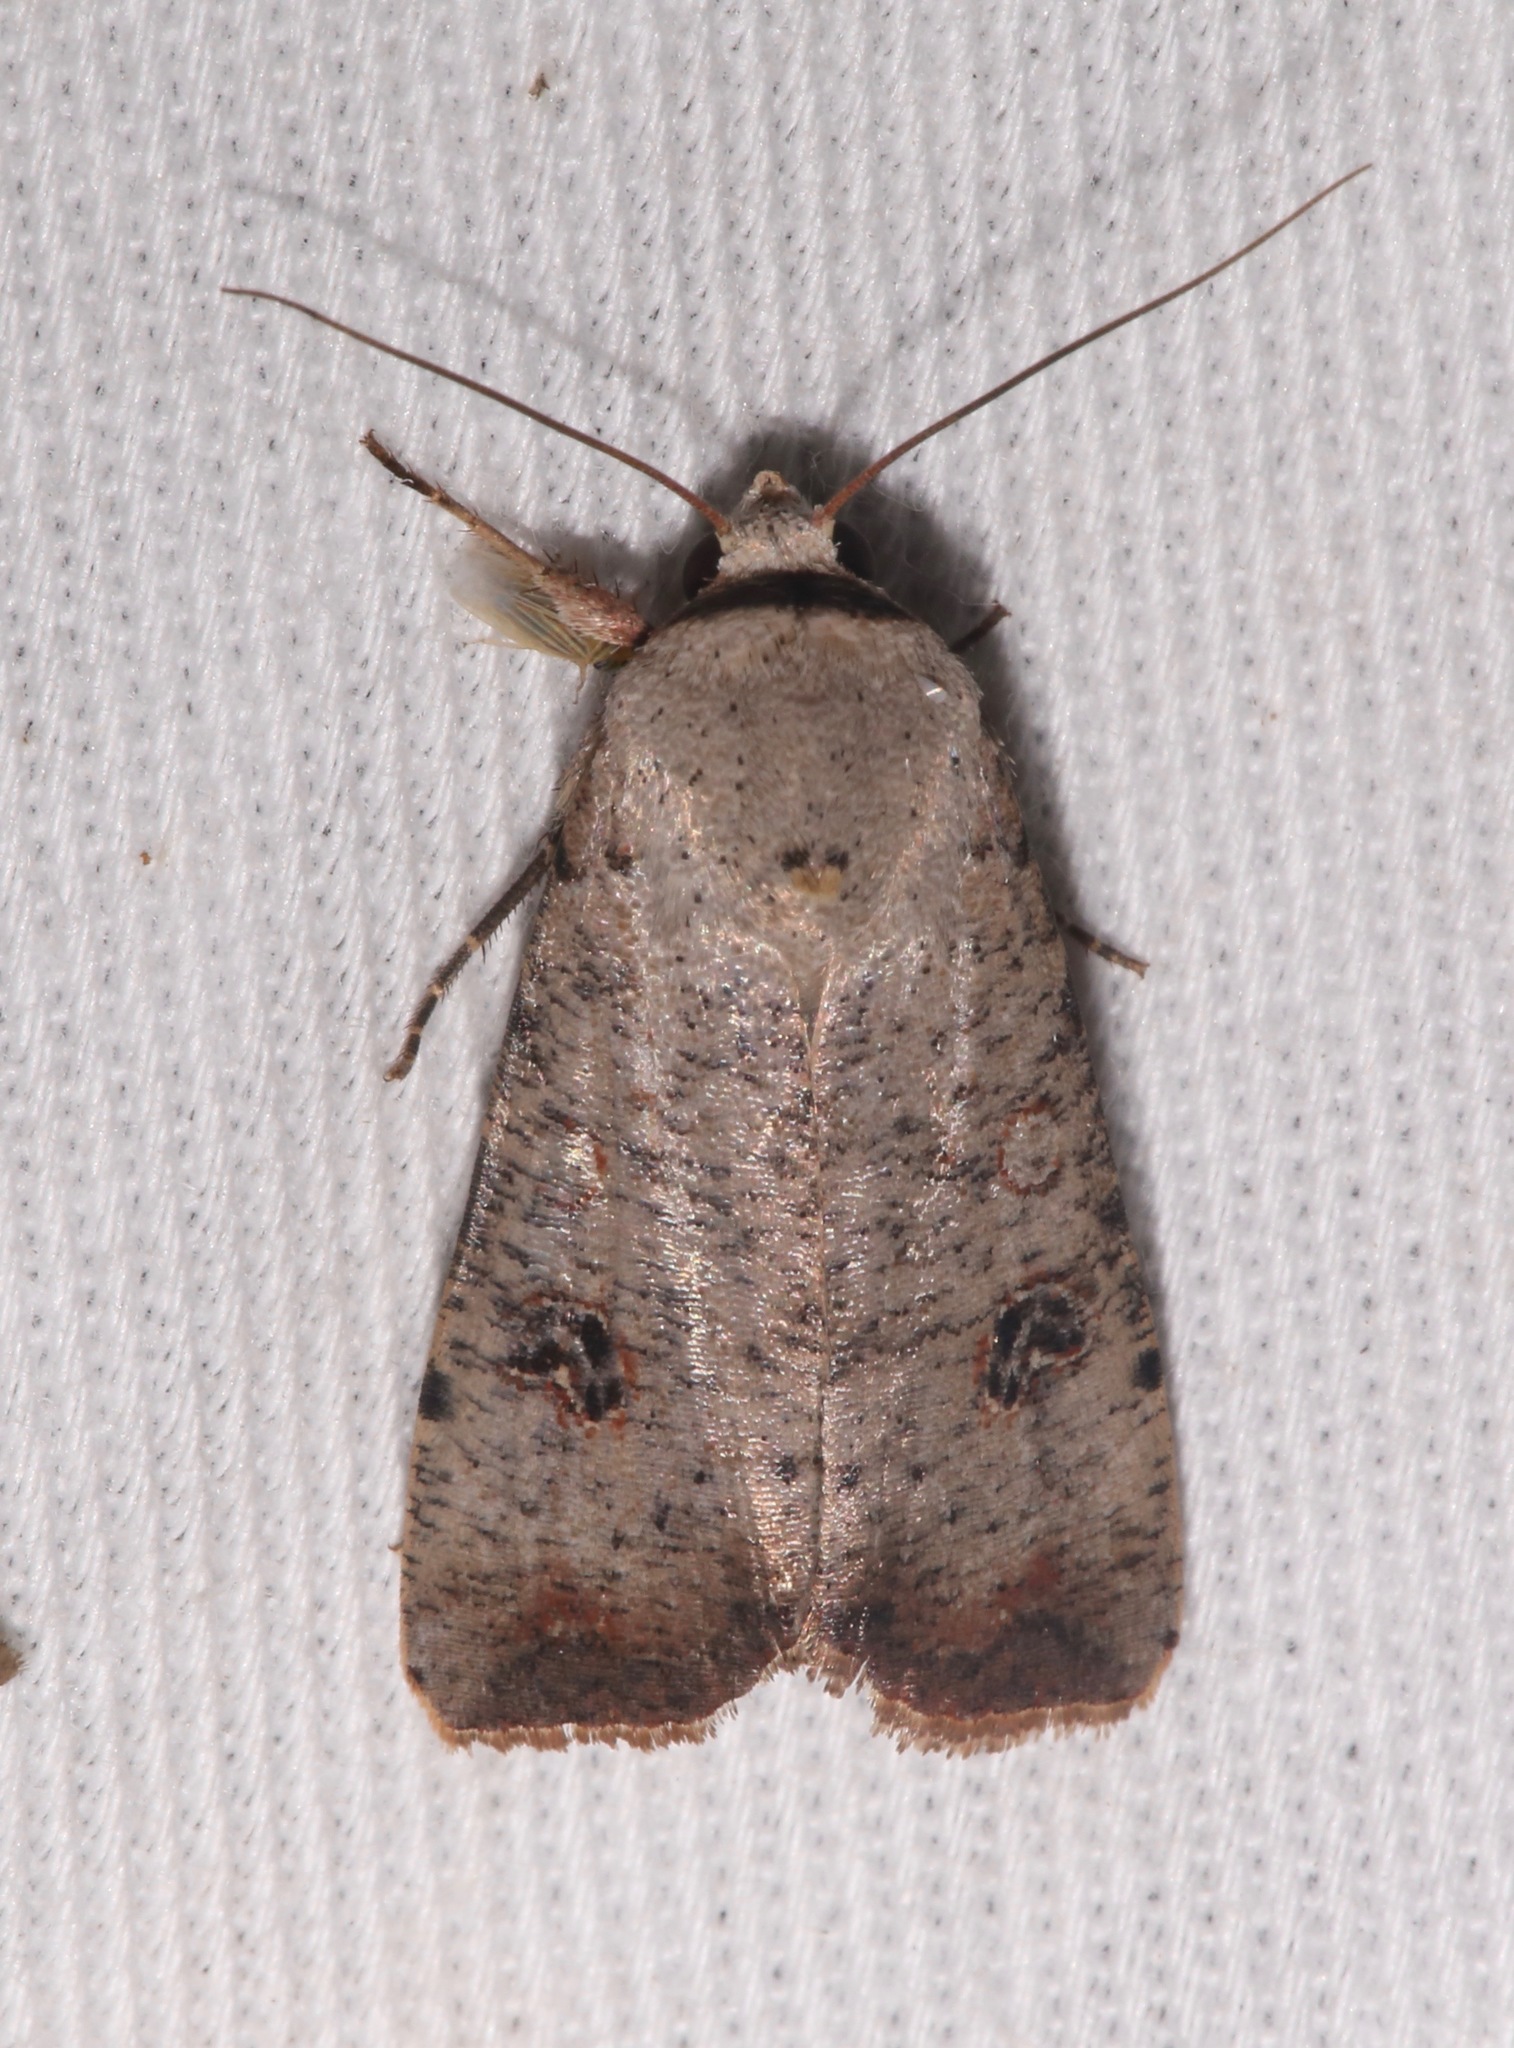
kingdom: Animalia
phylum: Arthropoda
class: Insecta
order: Lepidoptera
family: Noctuidae
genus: Anicla
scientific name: Anicla infecta
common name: Green cutworm
